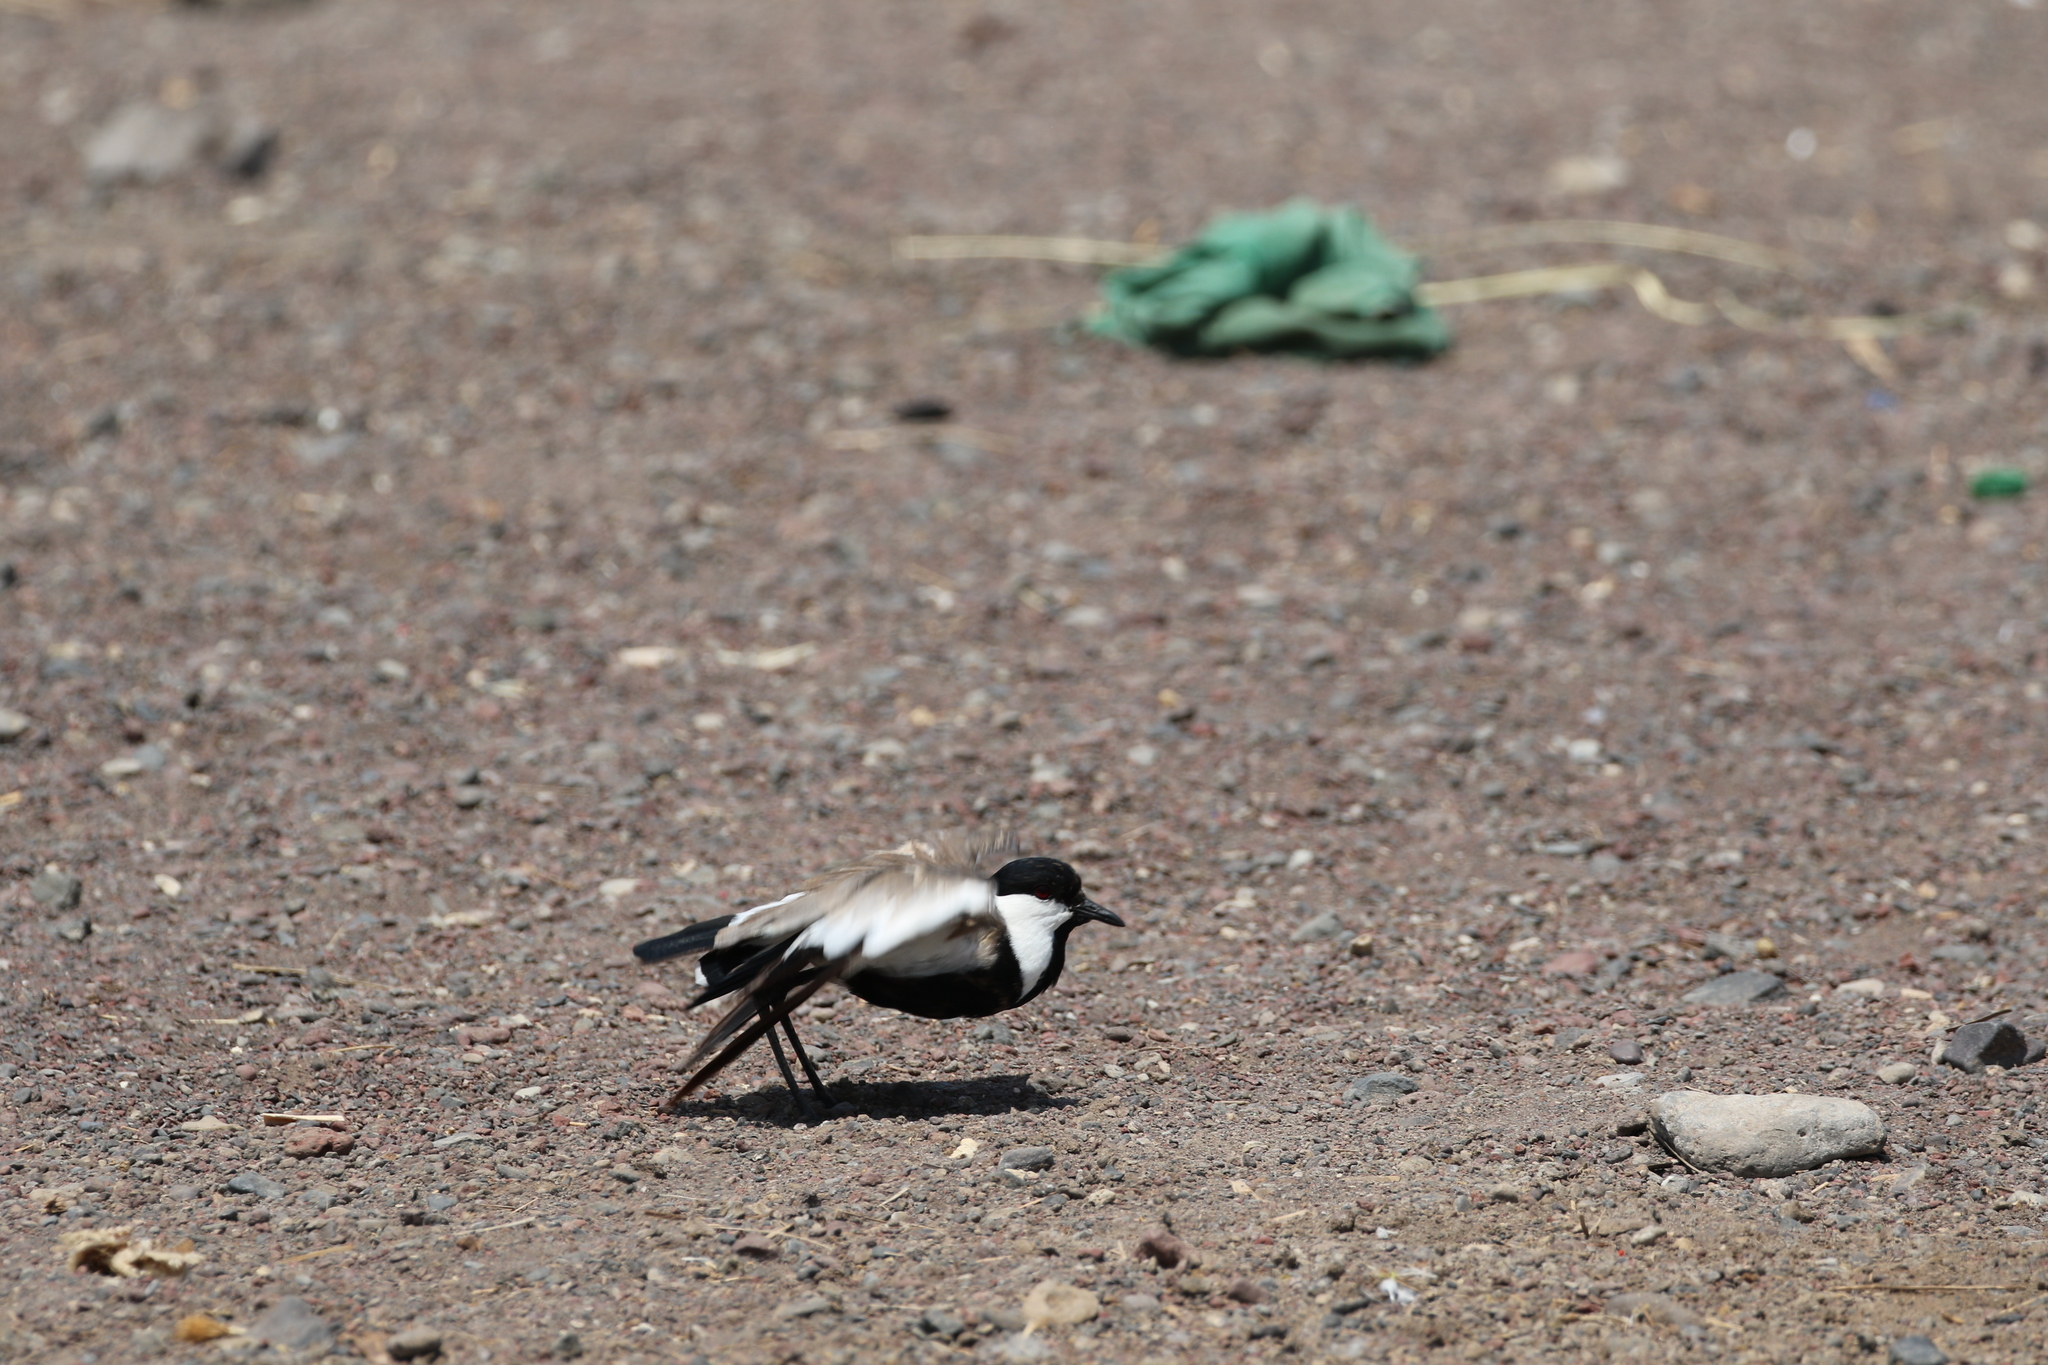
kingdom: Animalia
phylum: Chordata
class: Aves
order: Charadriiformes
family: Charadriidae
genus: Vanellus
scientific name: Vanellus spinosus
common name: Spur-winged lapwing
